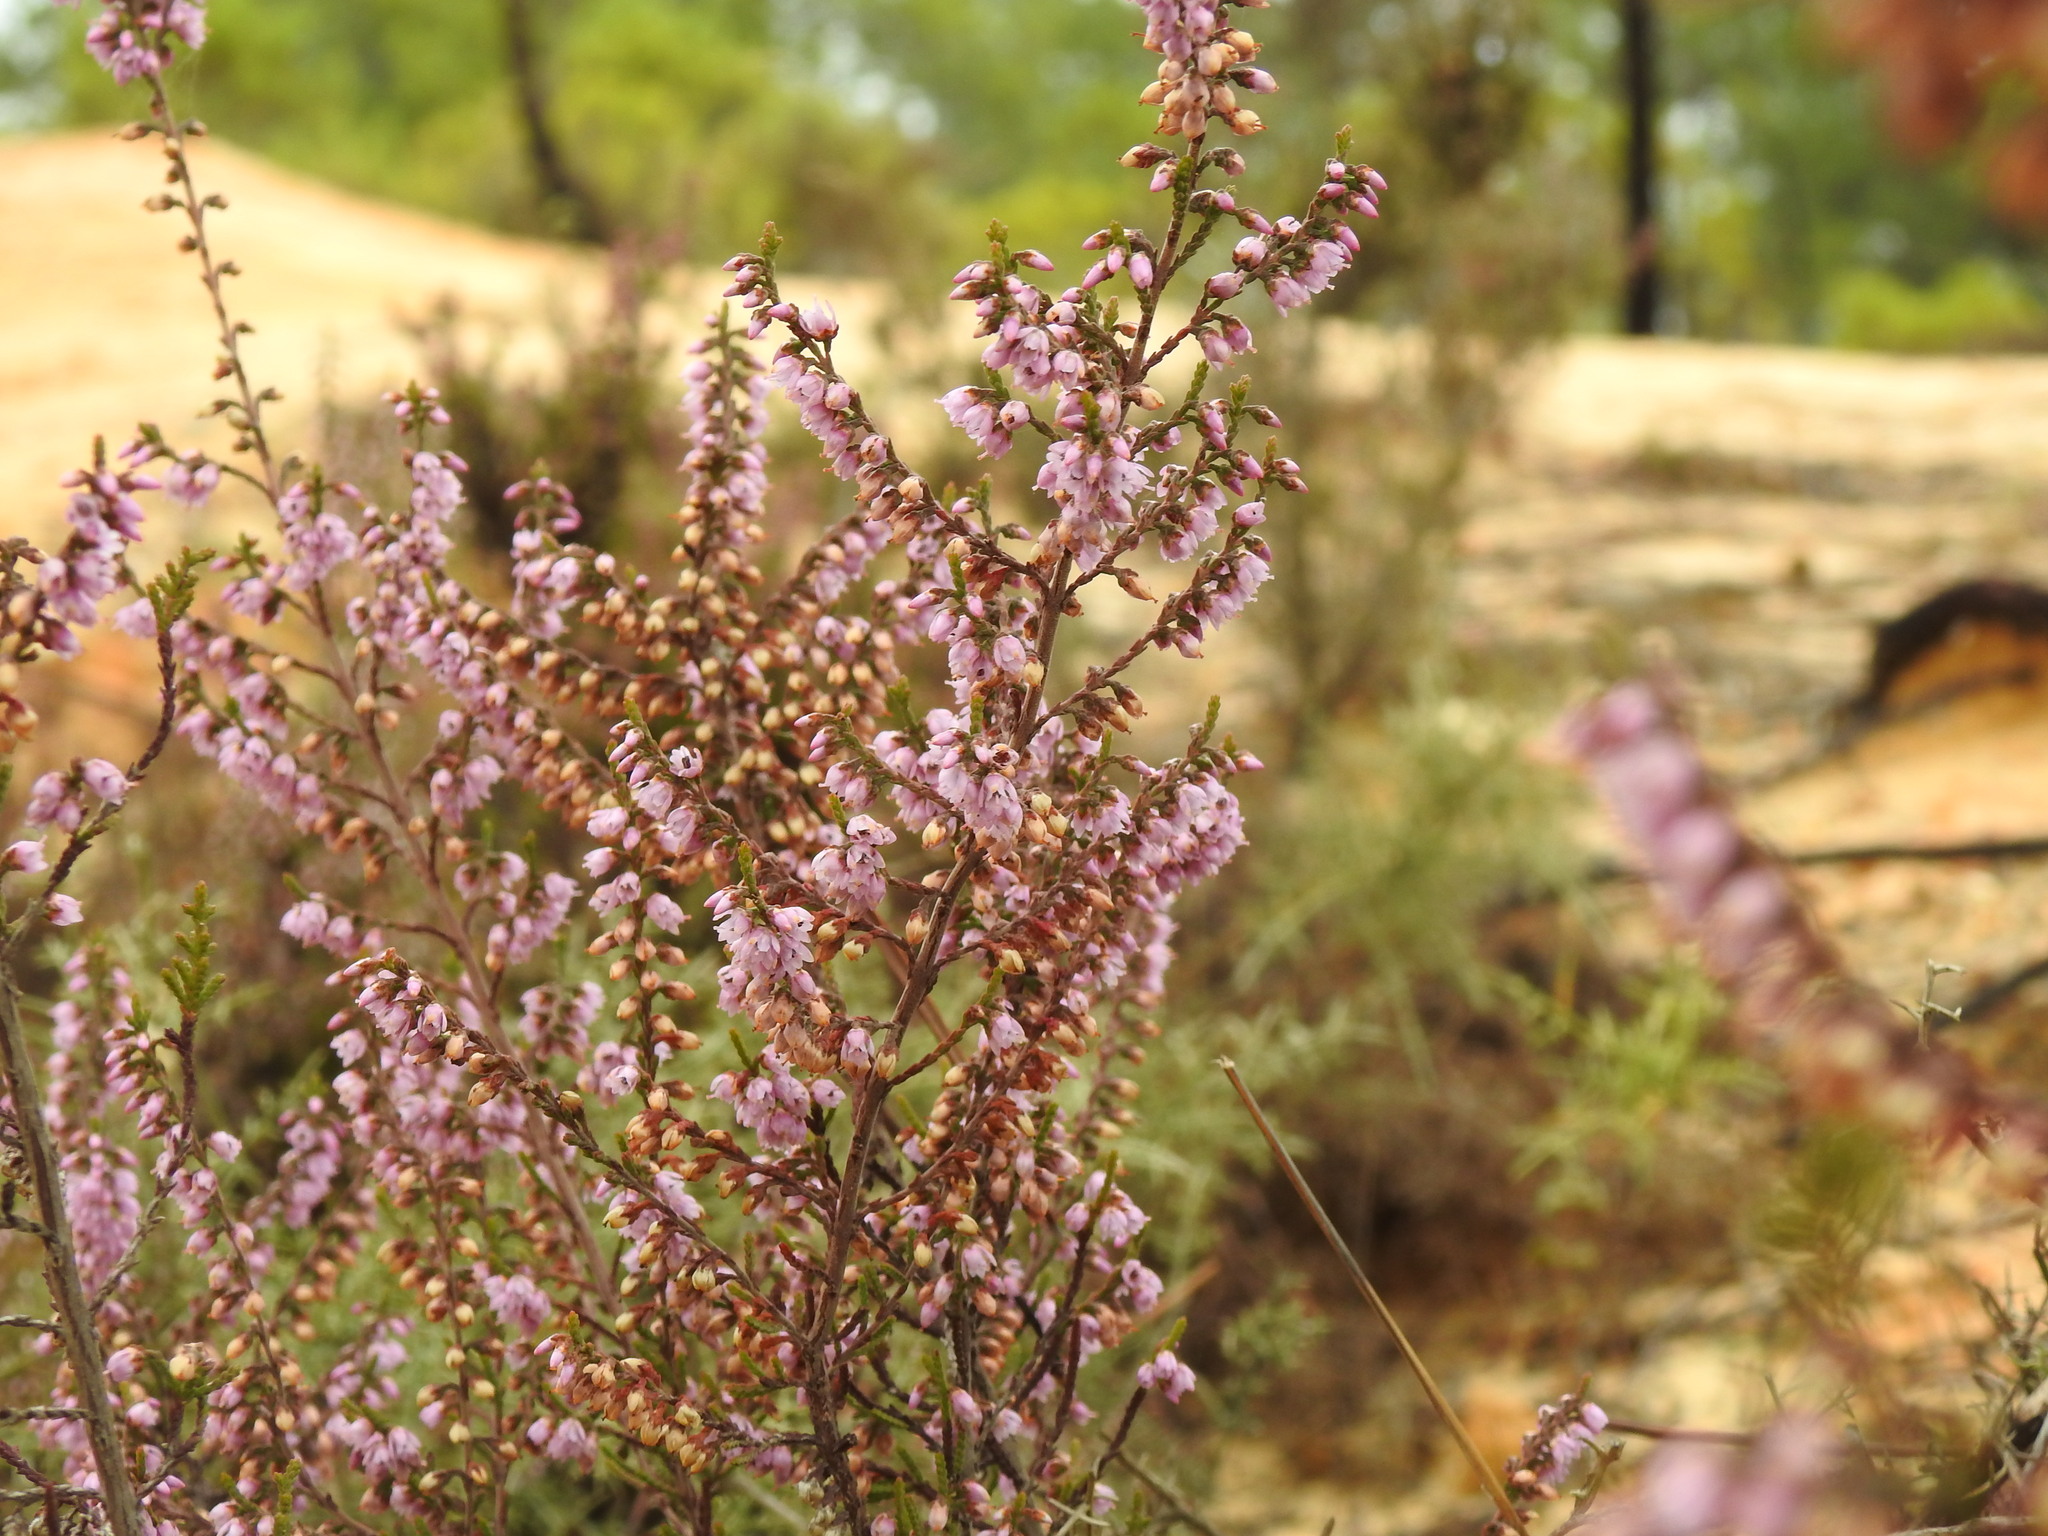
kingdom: Plantae
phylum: Tracheophyta
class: Magnoliopsida
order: Ericales
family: Ericaceae
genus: Calluna
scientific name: Calluna vulgaris
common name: Heather
